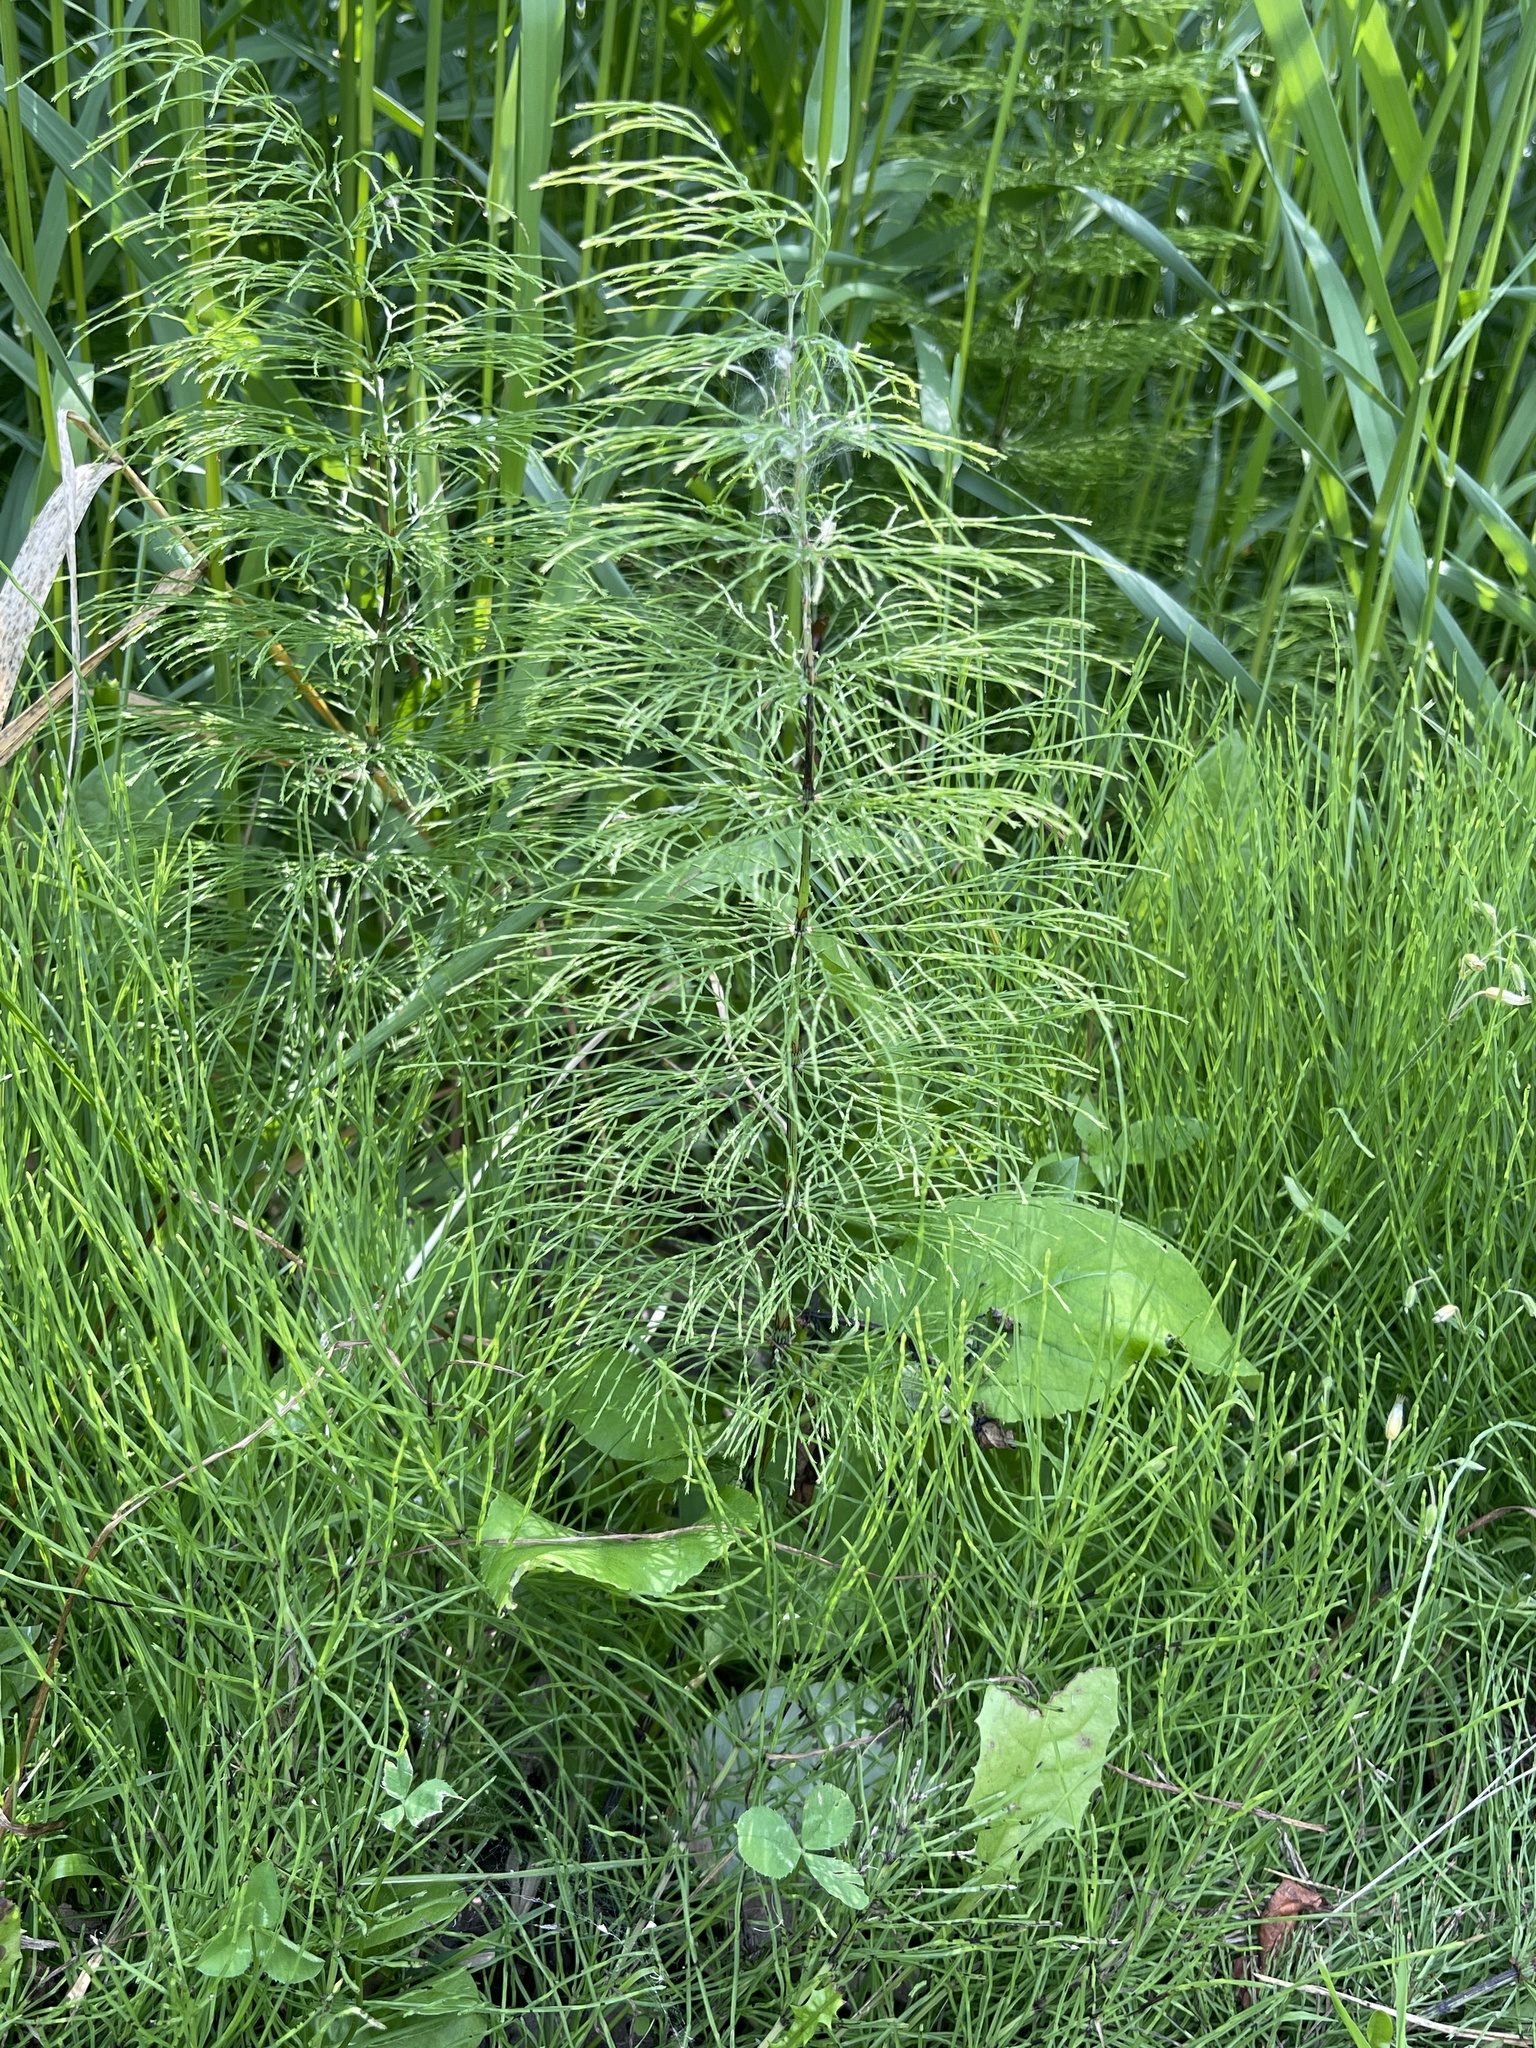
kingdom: Plantae
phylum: Tracheophyta
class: Polypodiopsida
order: Equisetales
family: Equisetaceae
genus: Equisetum
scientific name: Equisetum sylvaticum
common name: Wood horsetail
